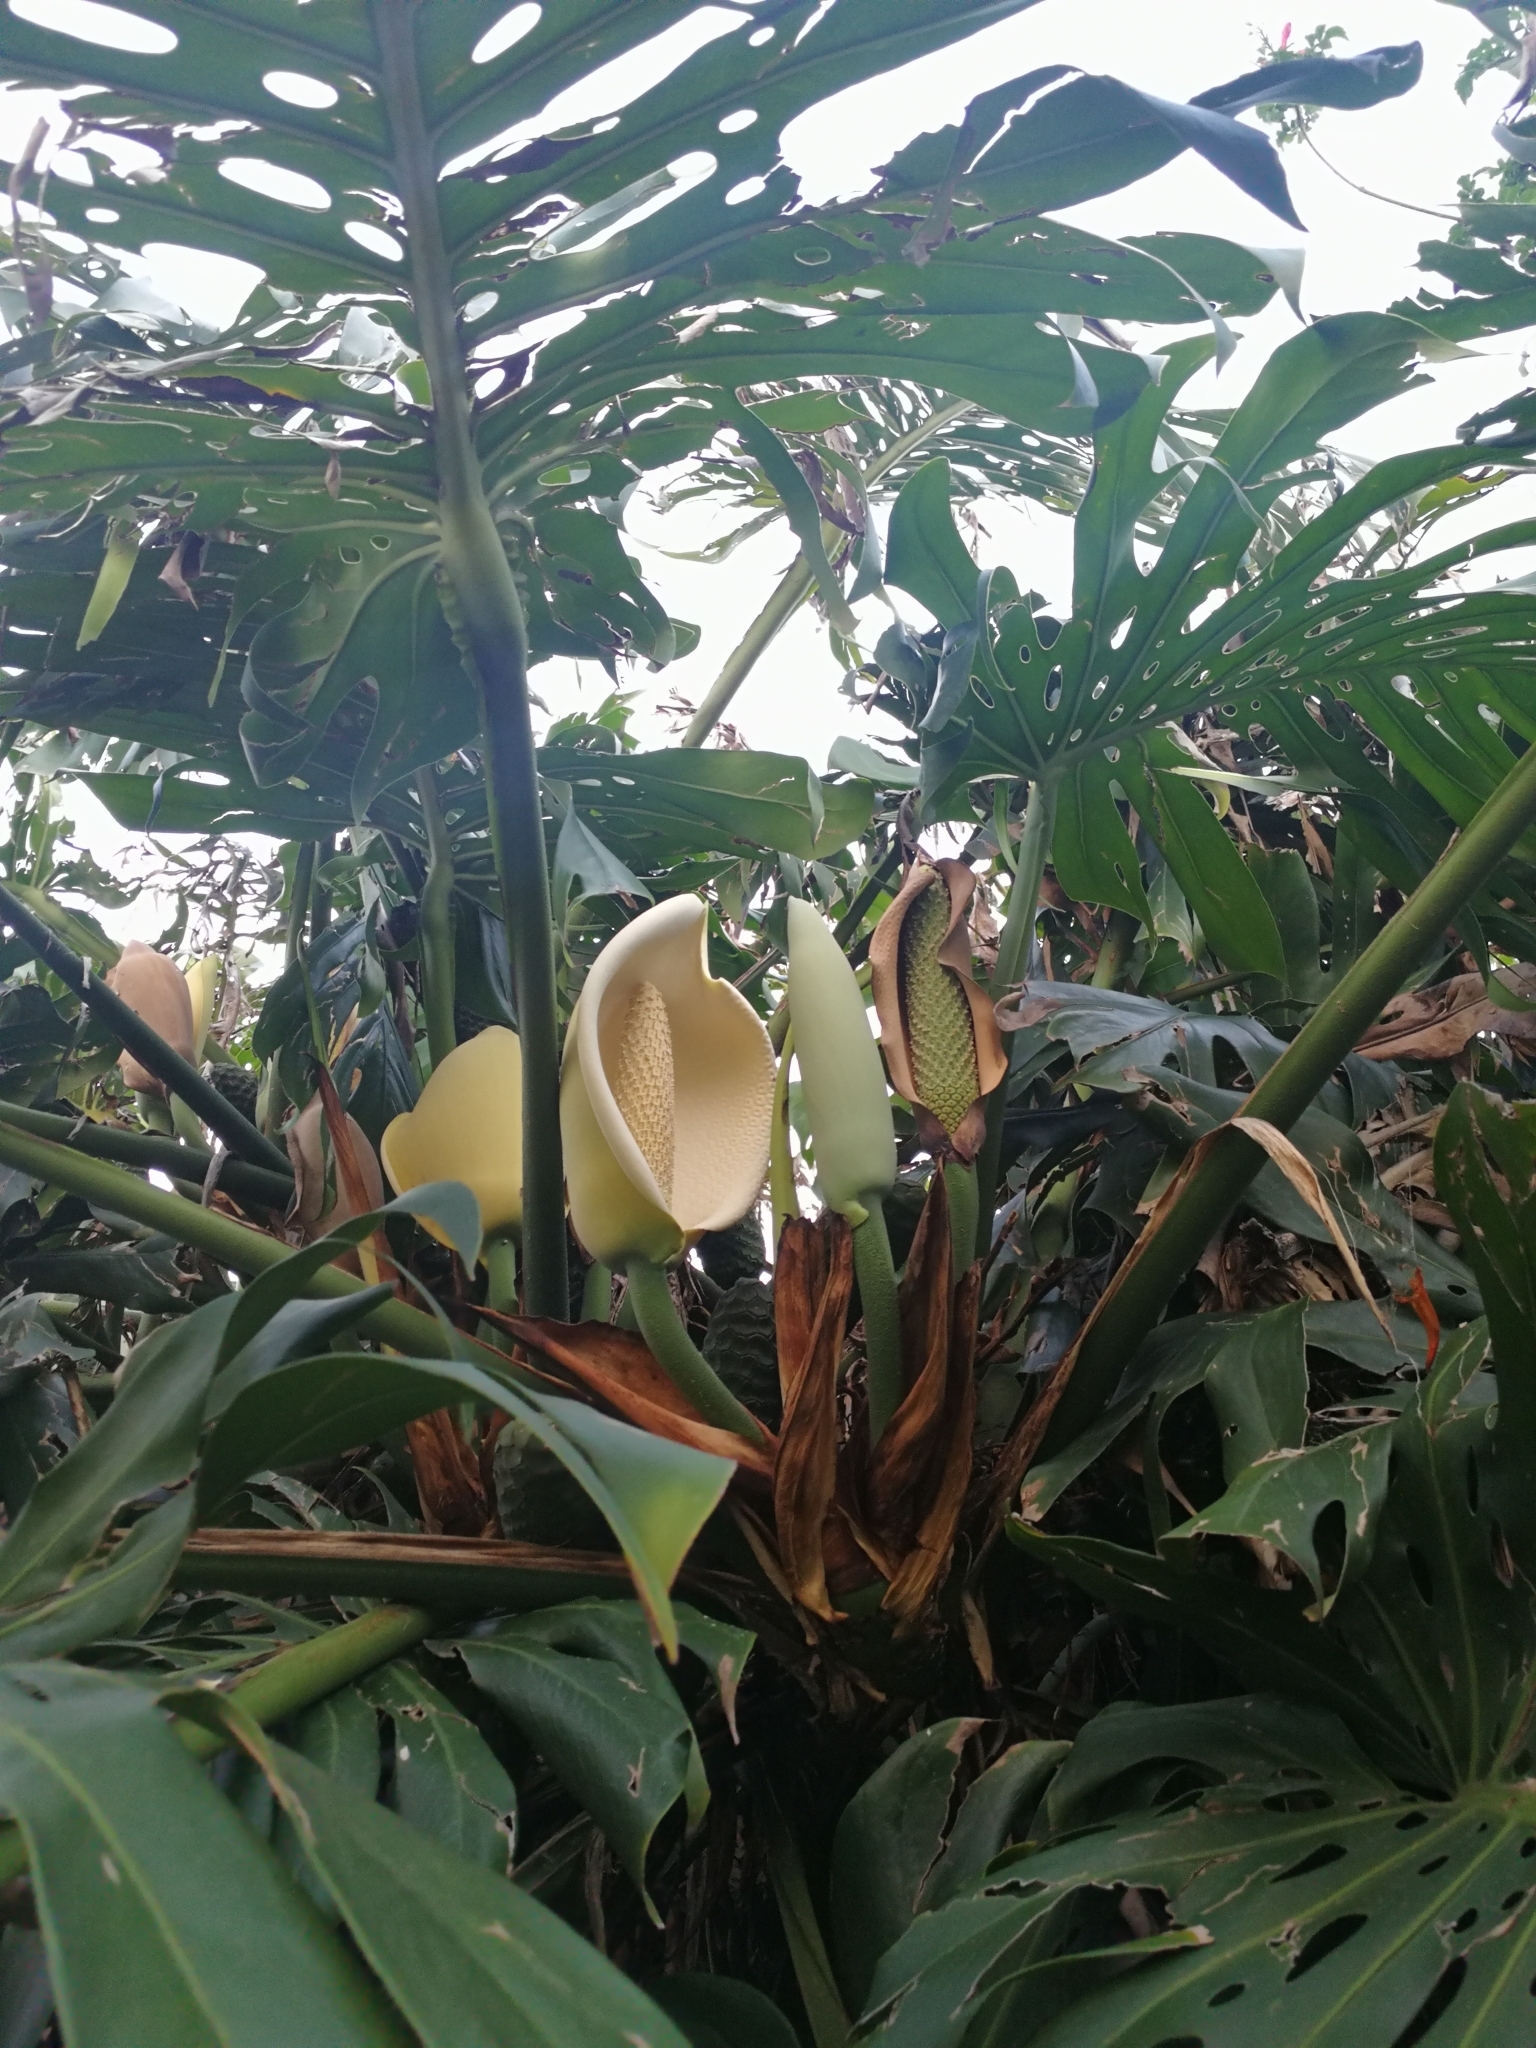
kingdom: Plantae
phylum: Tracheophyta
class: Liliopsida
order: Alismatales
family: Araceae
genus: Monstera
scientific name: Monstera deliciosa
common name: Cut-leaf-philodendron
